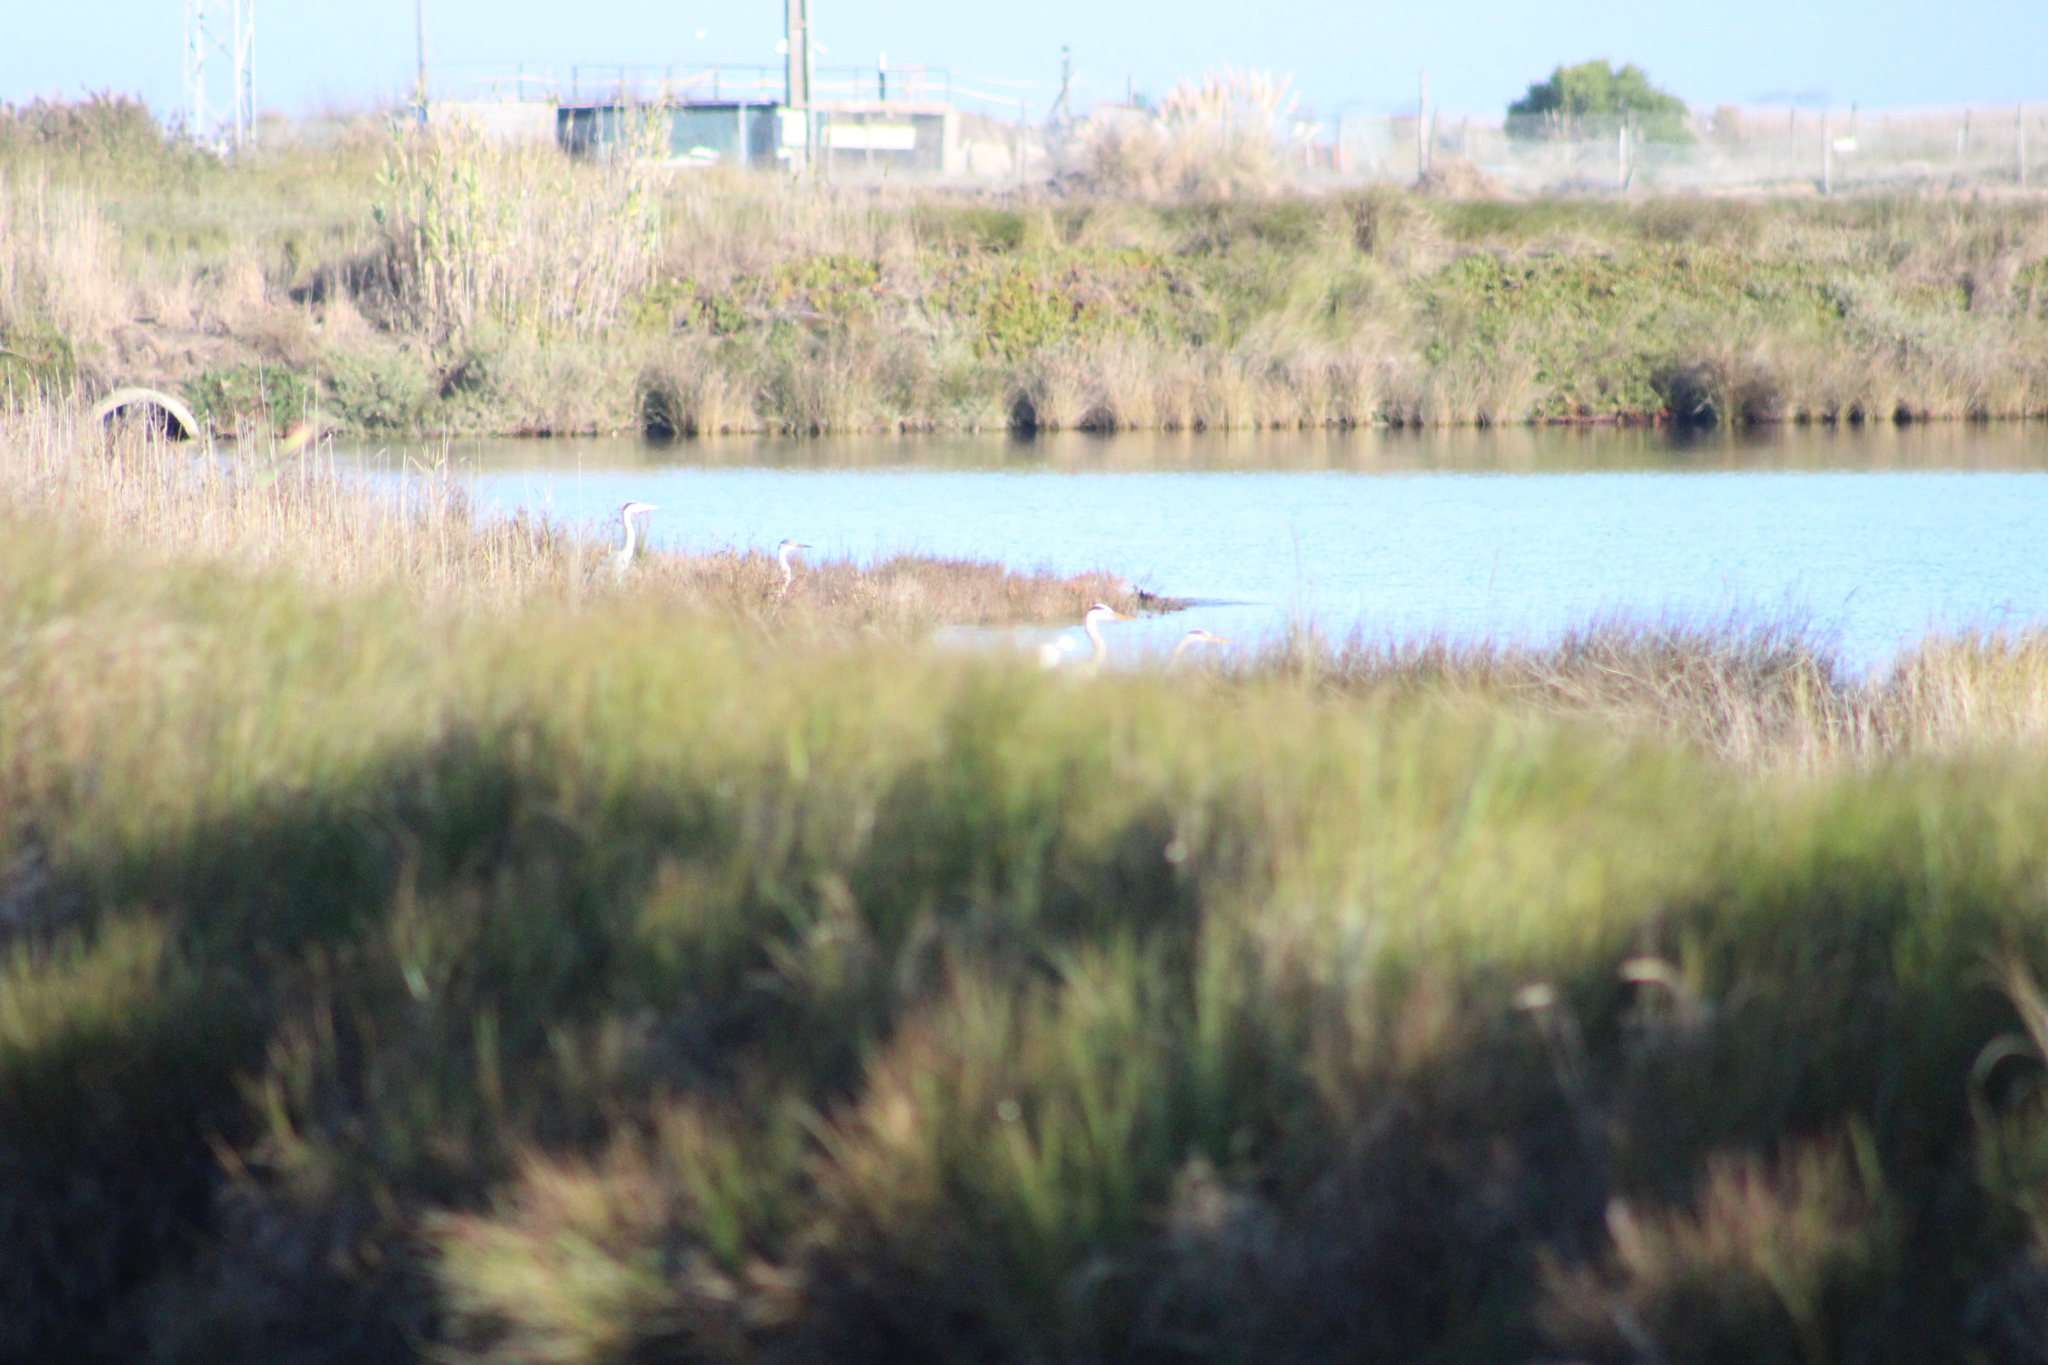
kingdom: Animalia
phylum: Chordata
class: Aves
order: Pelecaniformes
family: Ardeidae
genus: Ardea
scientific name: Ardea cinerea
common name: Grey heron
